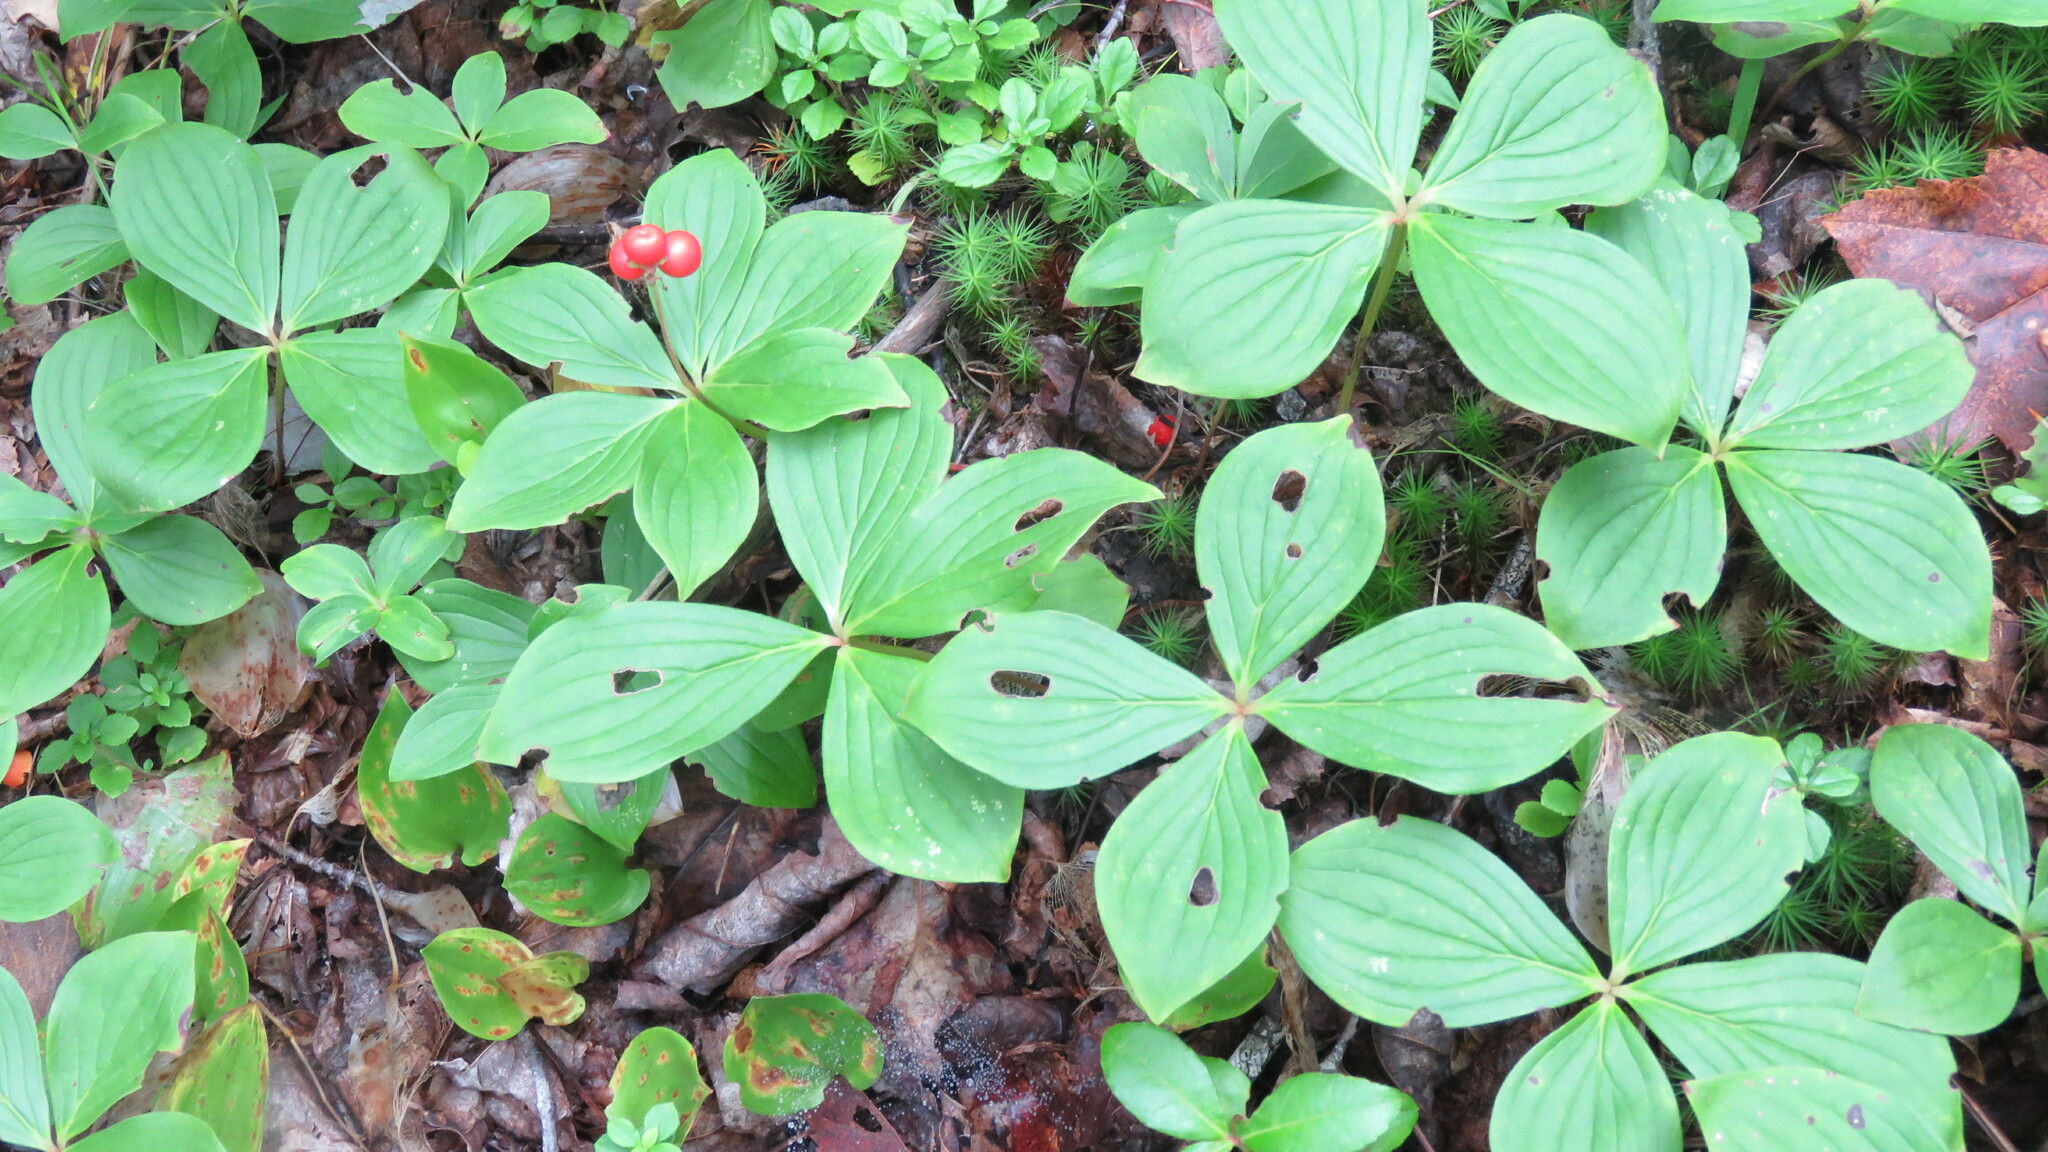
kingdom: Plantae
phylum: Tracheophyta
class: Magnoliopsida
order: Cornales
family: Cornaceae
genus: Cornus
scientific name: Cornus canadensis
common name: Creeping dogwood
